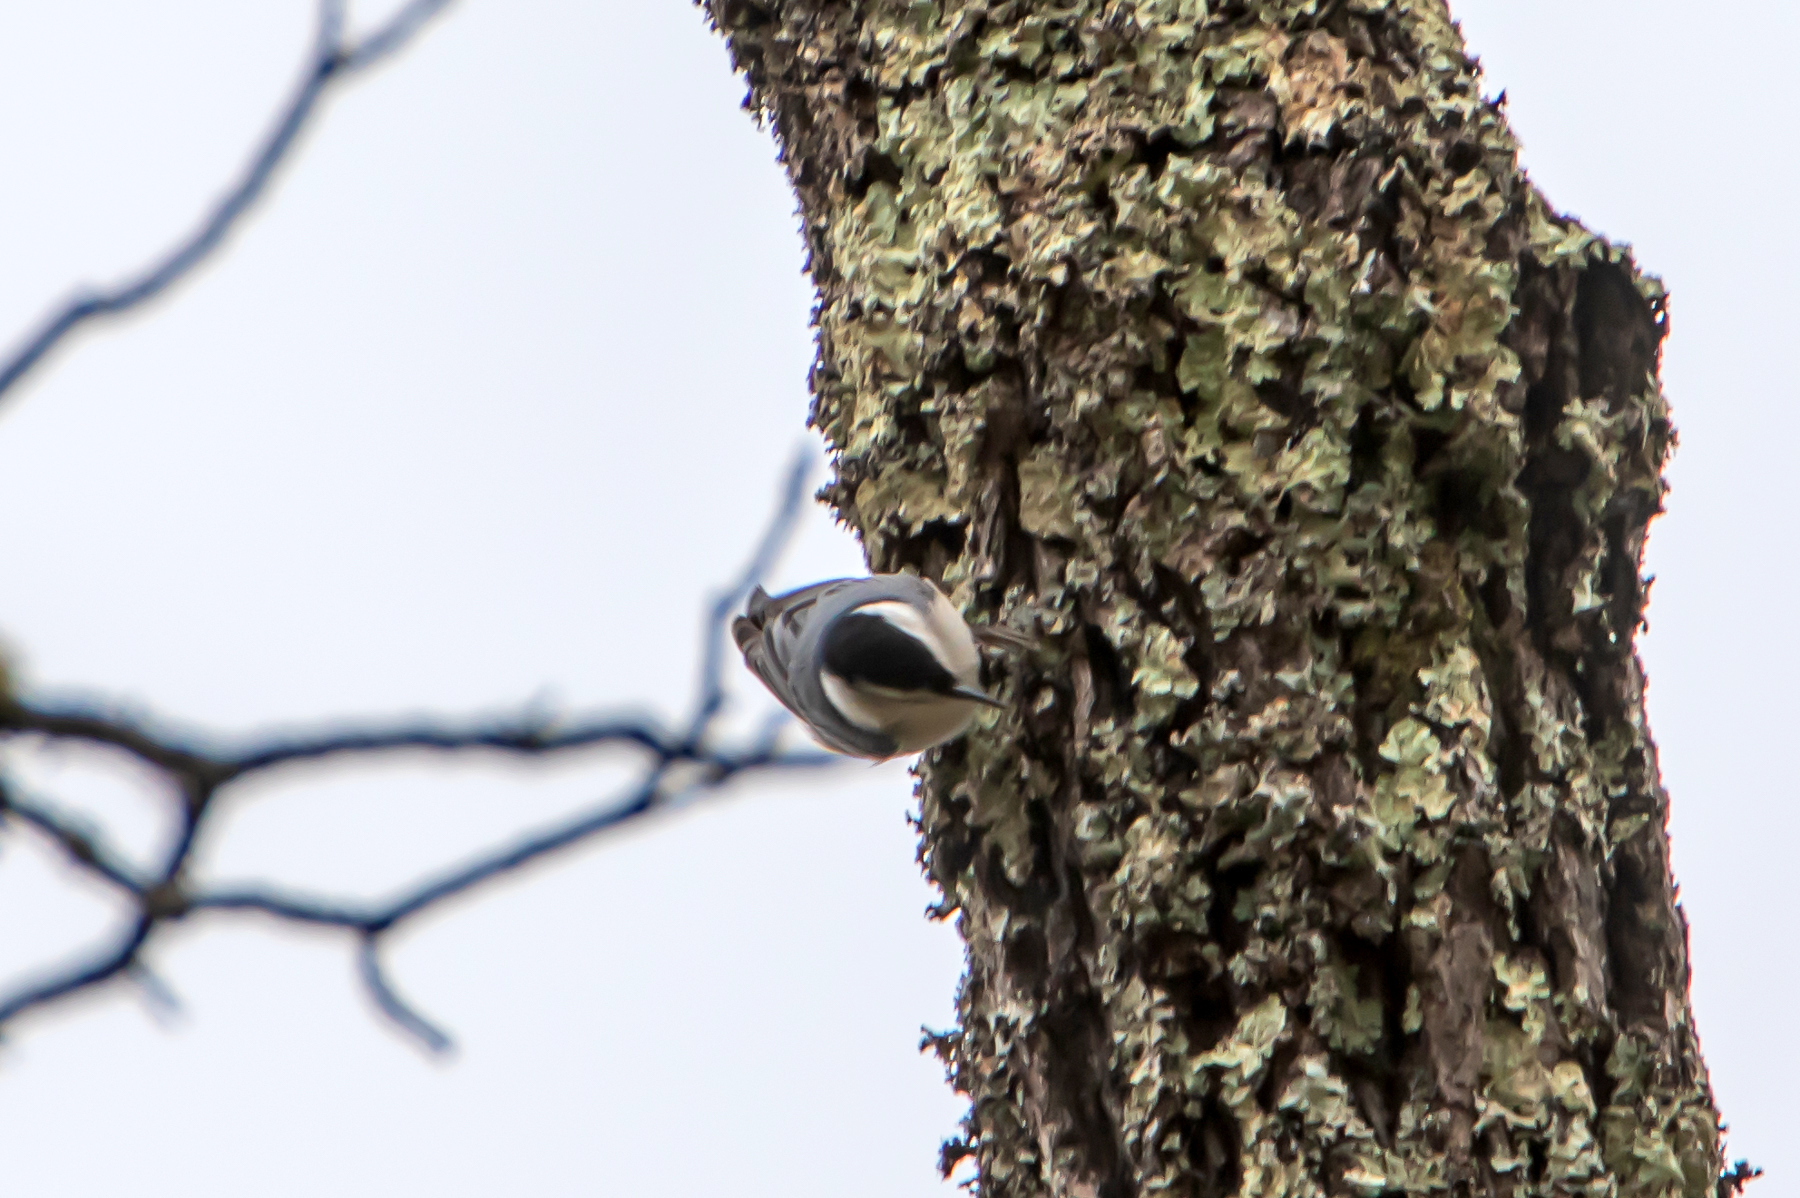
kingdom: Animalia
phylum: Chordata
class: Aves
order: Passeriformes
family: Sittidae
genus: Sitta
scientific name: Sitta carolinensis
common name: White-breasted nuthatch
